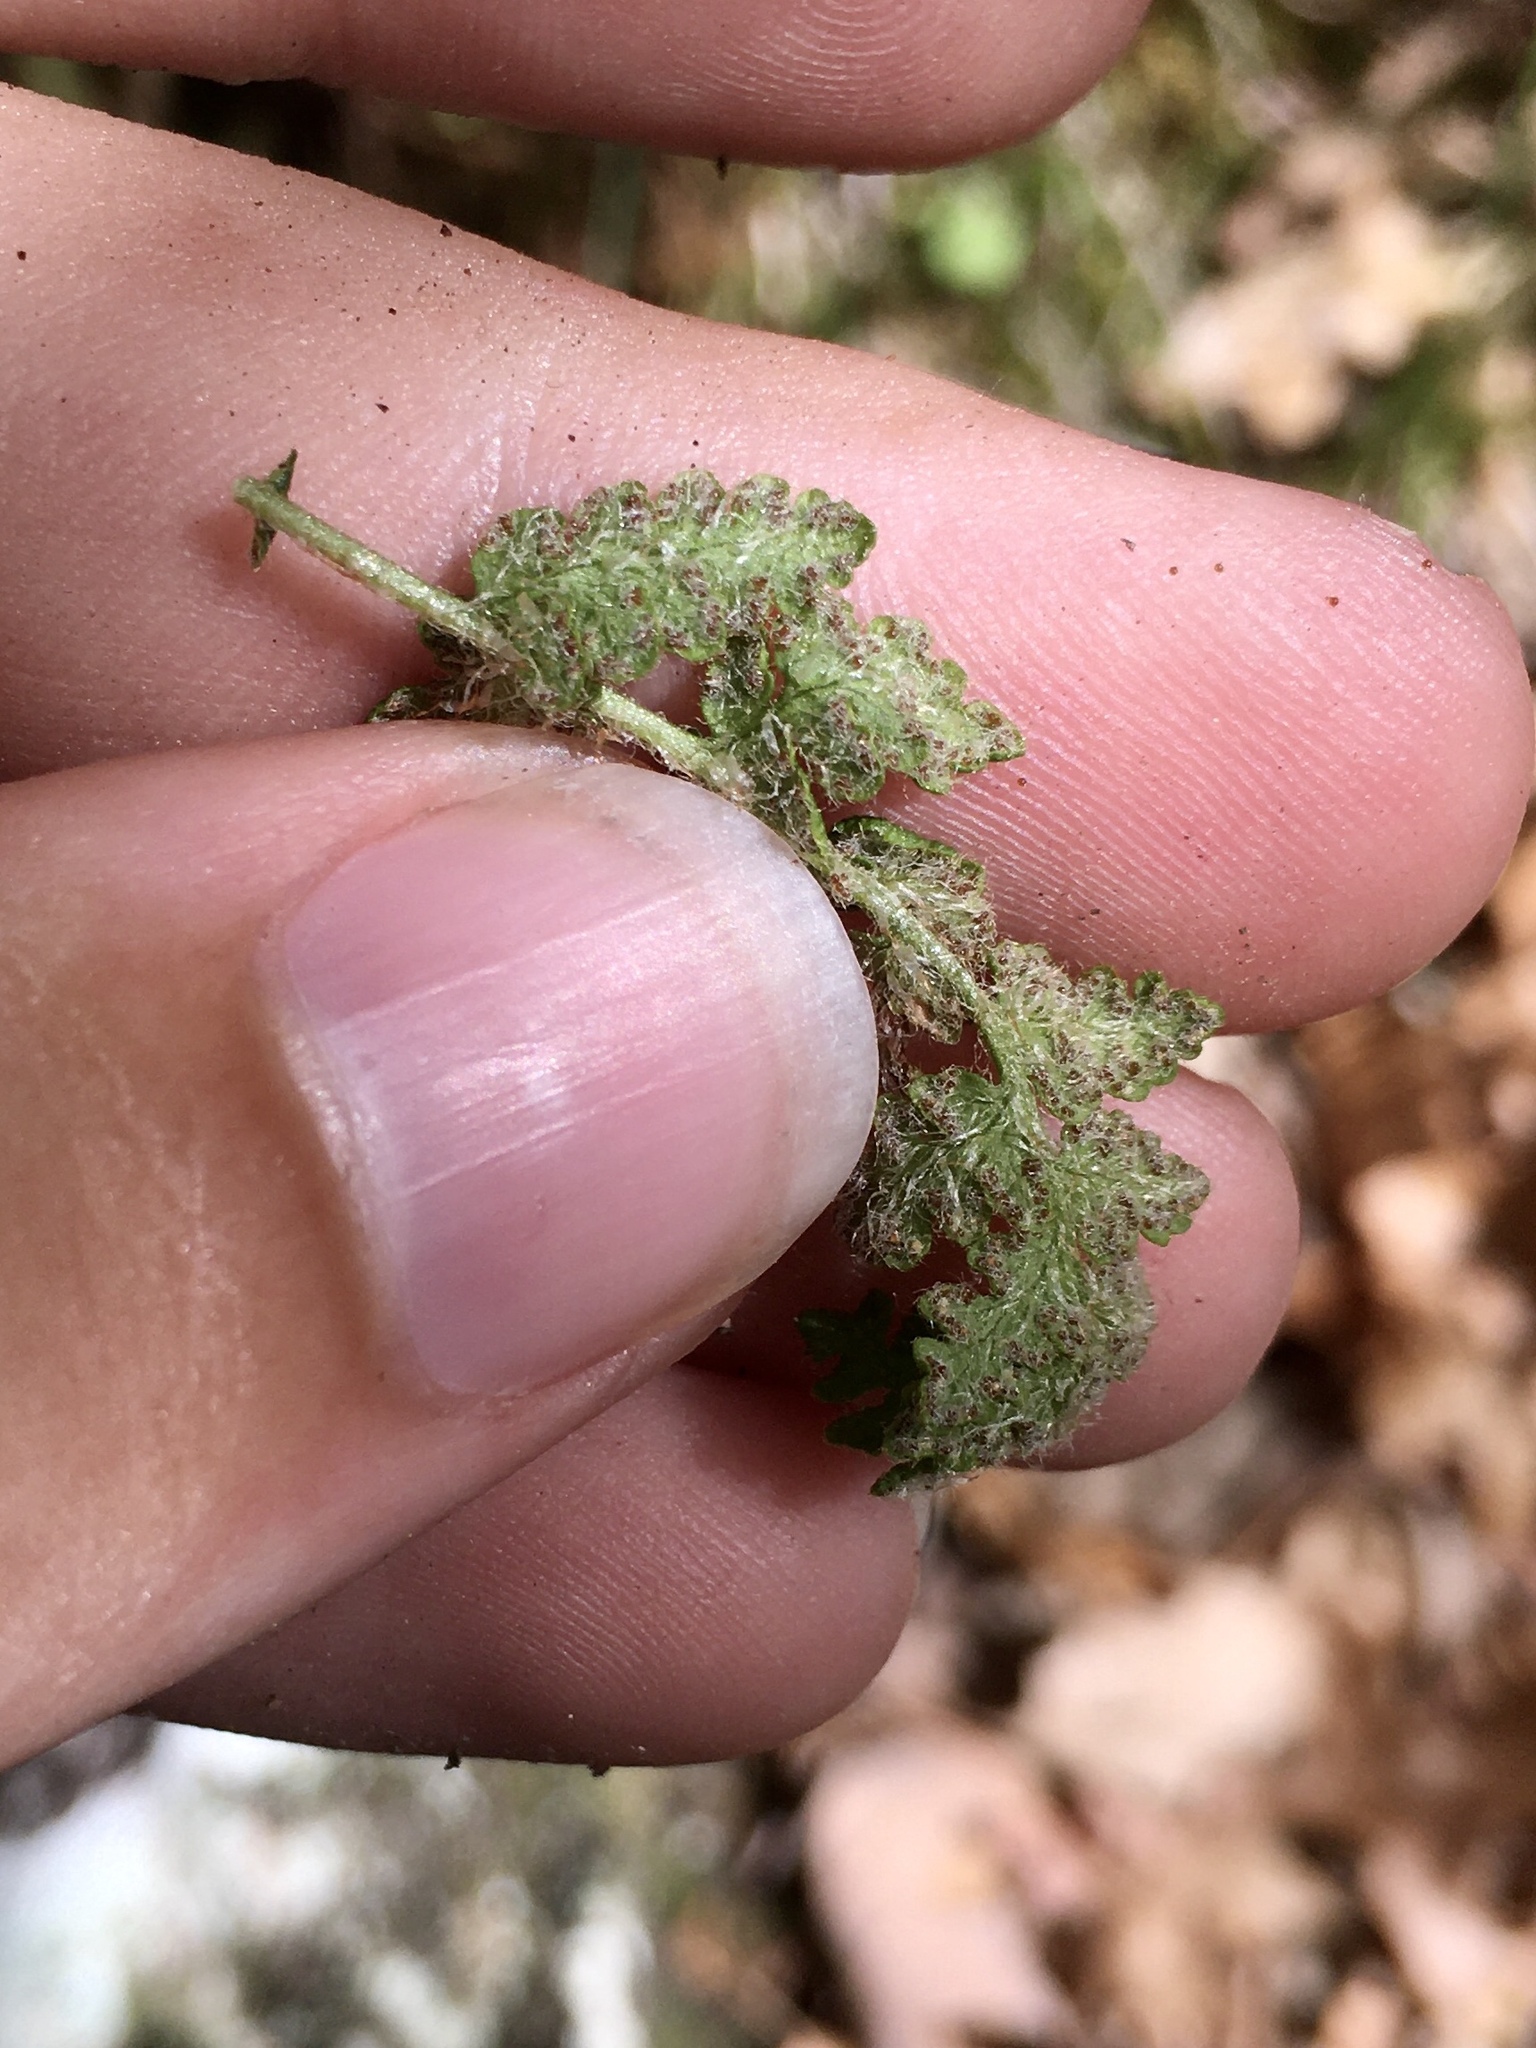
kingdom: Plantae
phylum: Tracheophyta
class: Polypodiopsida
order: Polypodiales
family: Woodsiaceae
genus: Woodsia
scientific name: Woodsia ilvensis
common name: Fragrant woodsia
